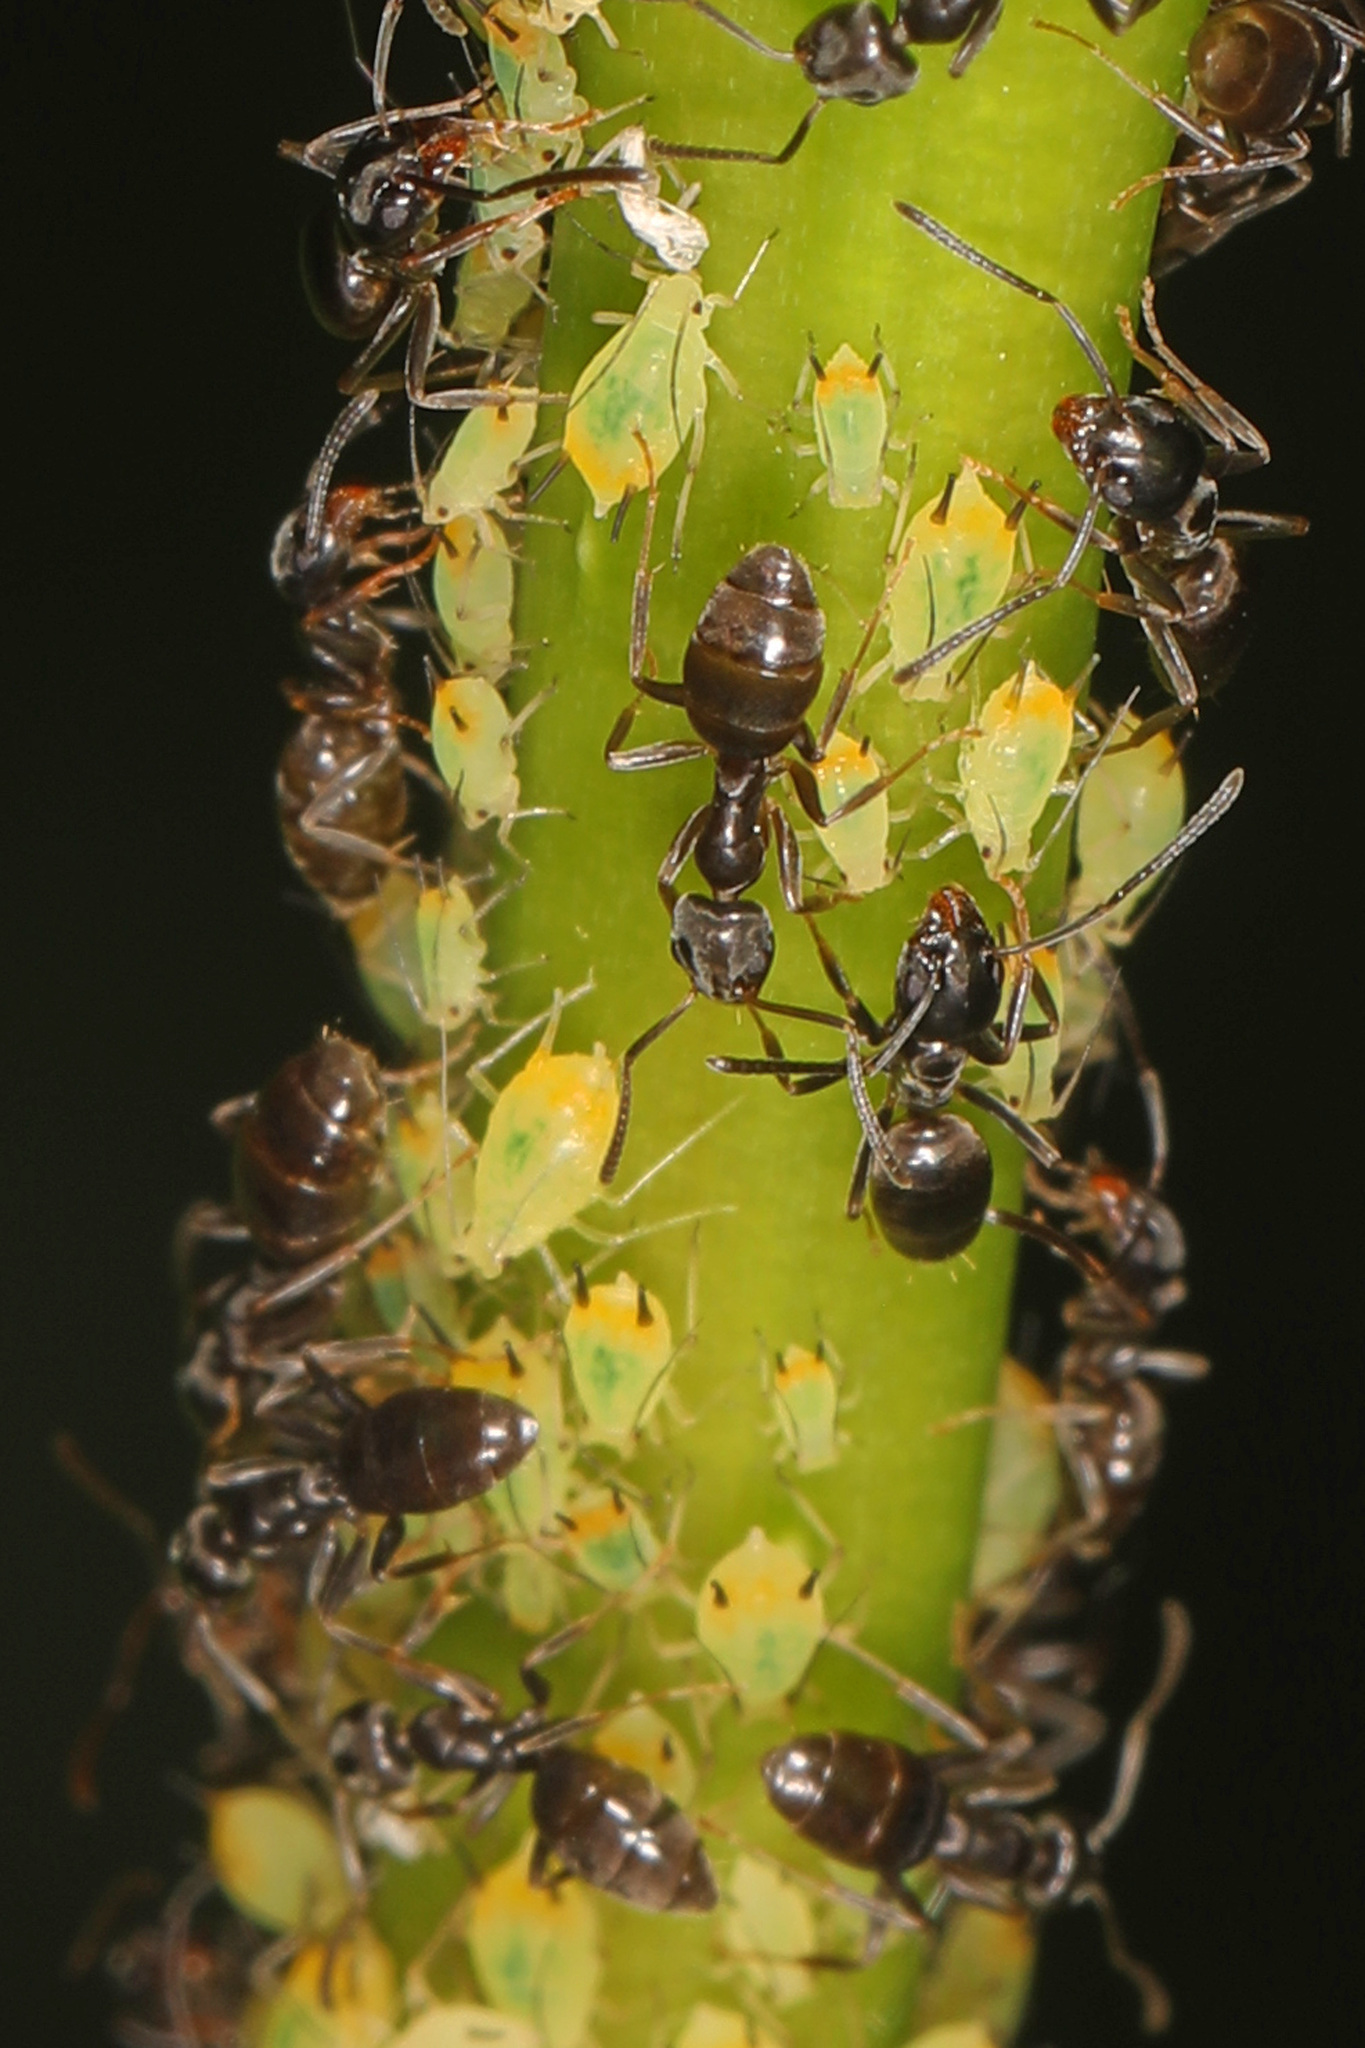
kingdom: Animalia
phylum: Arthropoda
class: Insecta
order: Hymenoptera
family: Formicidae
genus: Tapinoma
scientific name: Tapinoma sessile
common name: Odorous house ant
